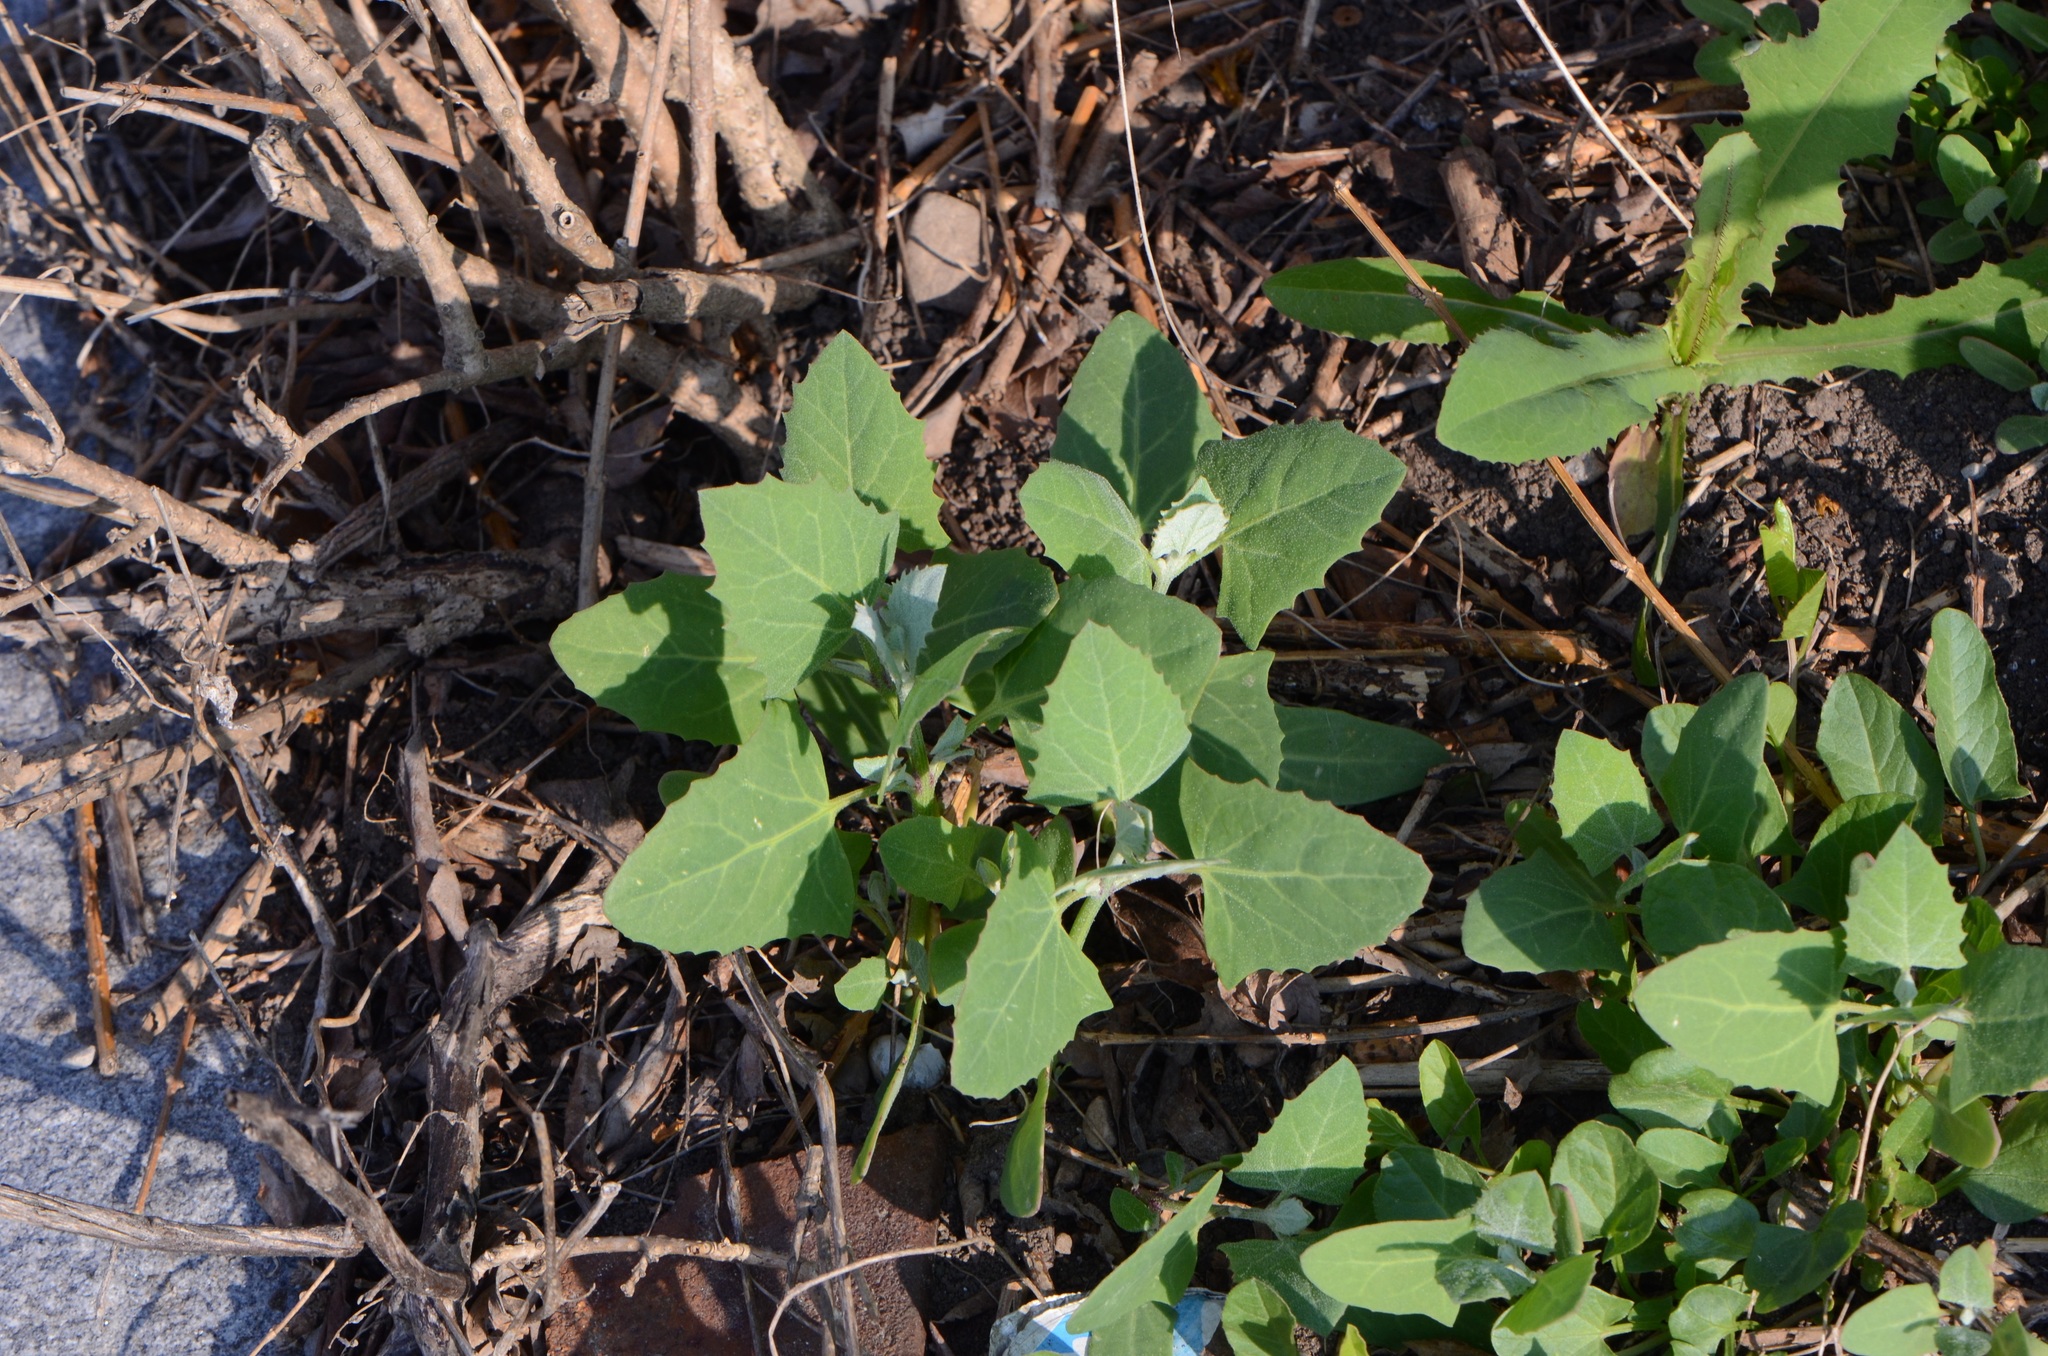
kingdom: Plantae
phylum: Tracheophyta
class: Magnoliopsida
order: Caryophyllales
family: Amaranthaceae
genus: Chenopodium
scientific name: Chenopodium album
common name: Fat-hen
